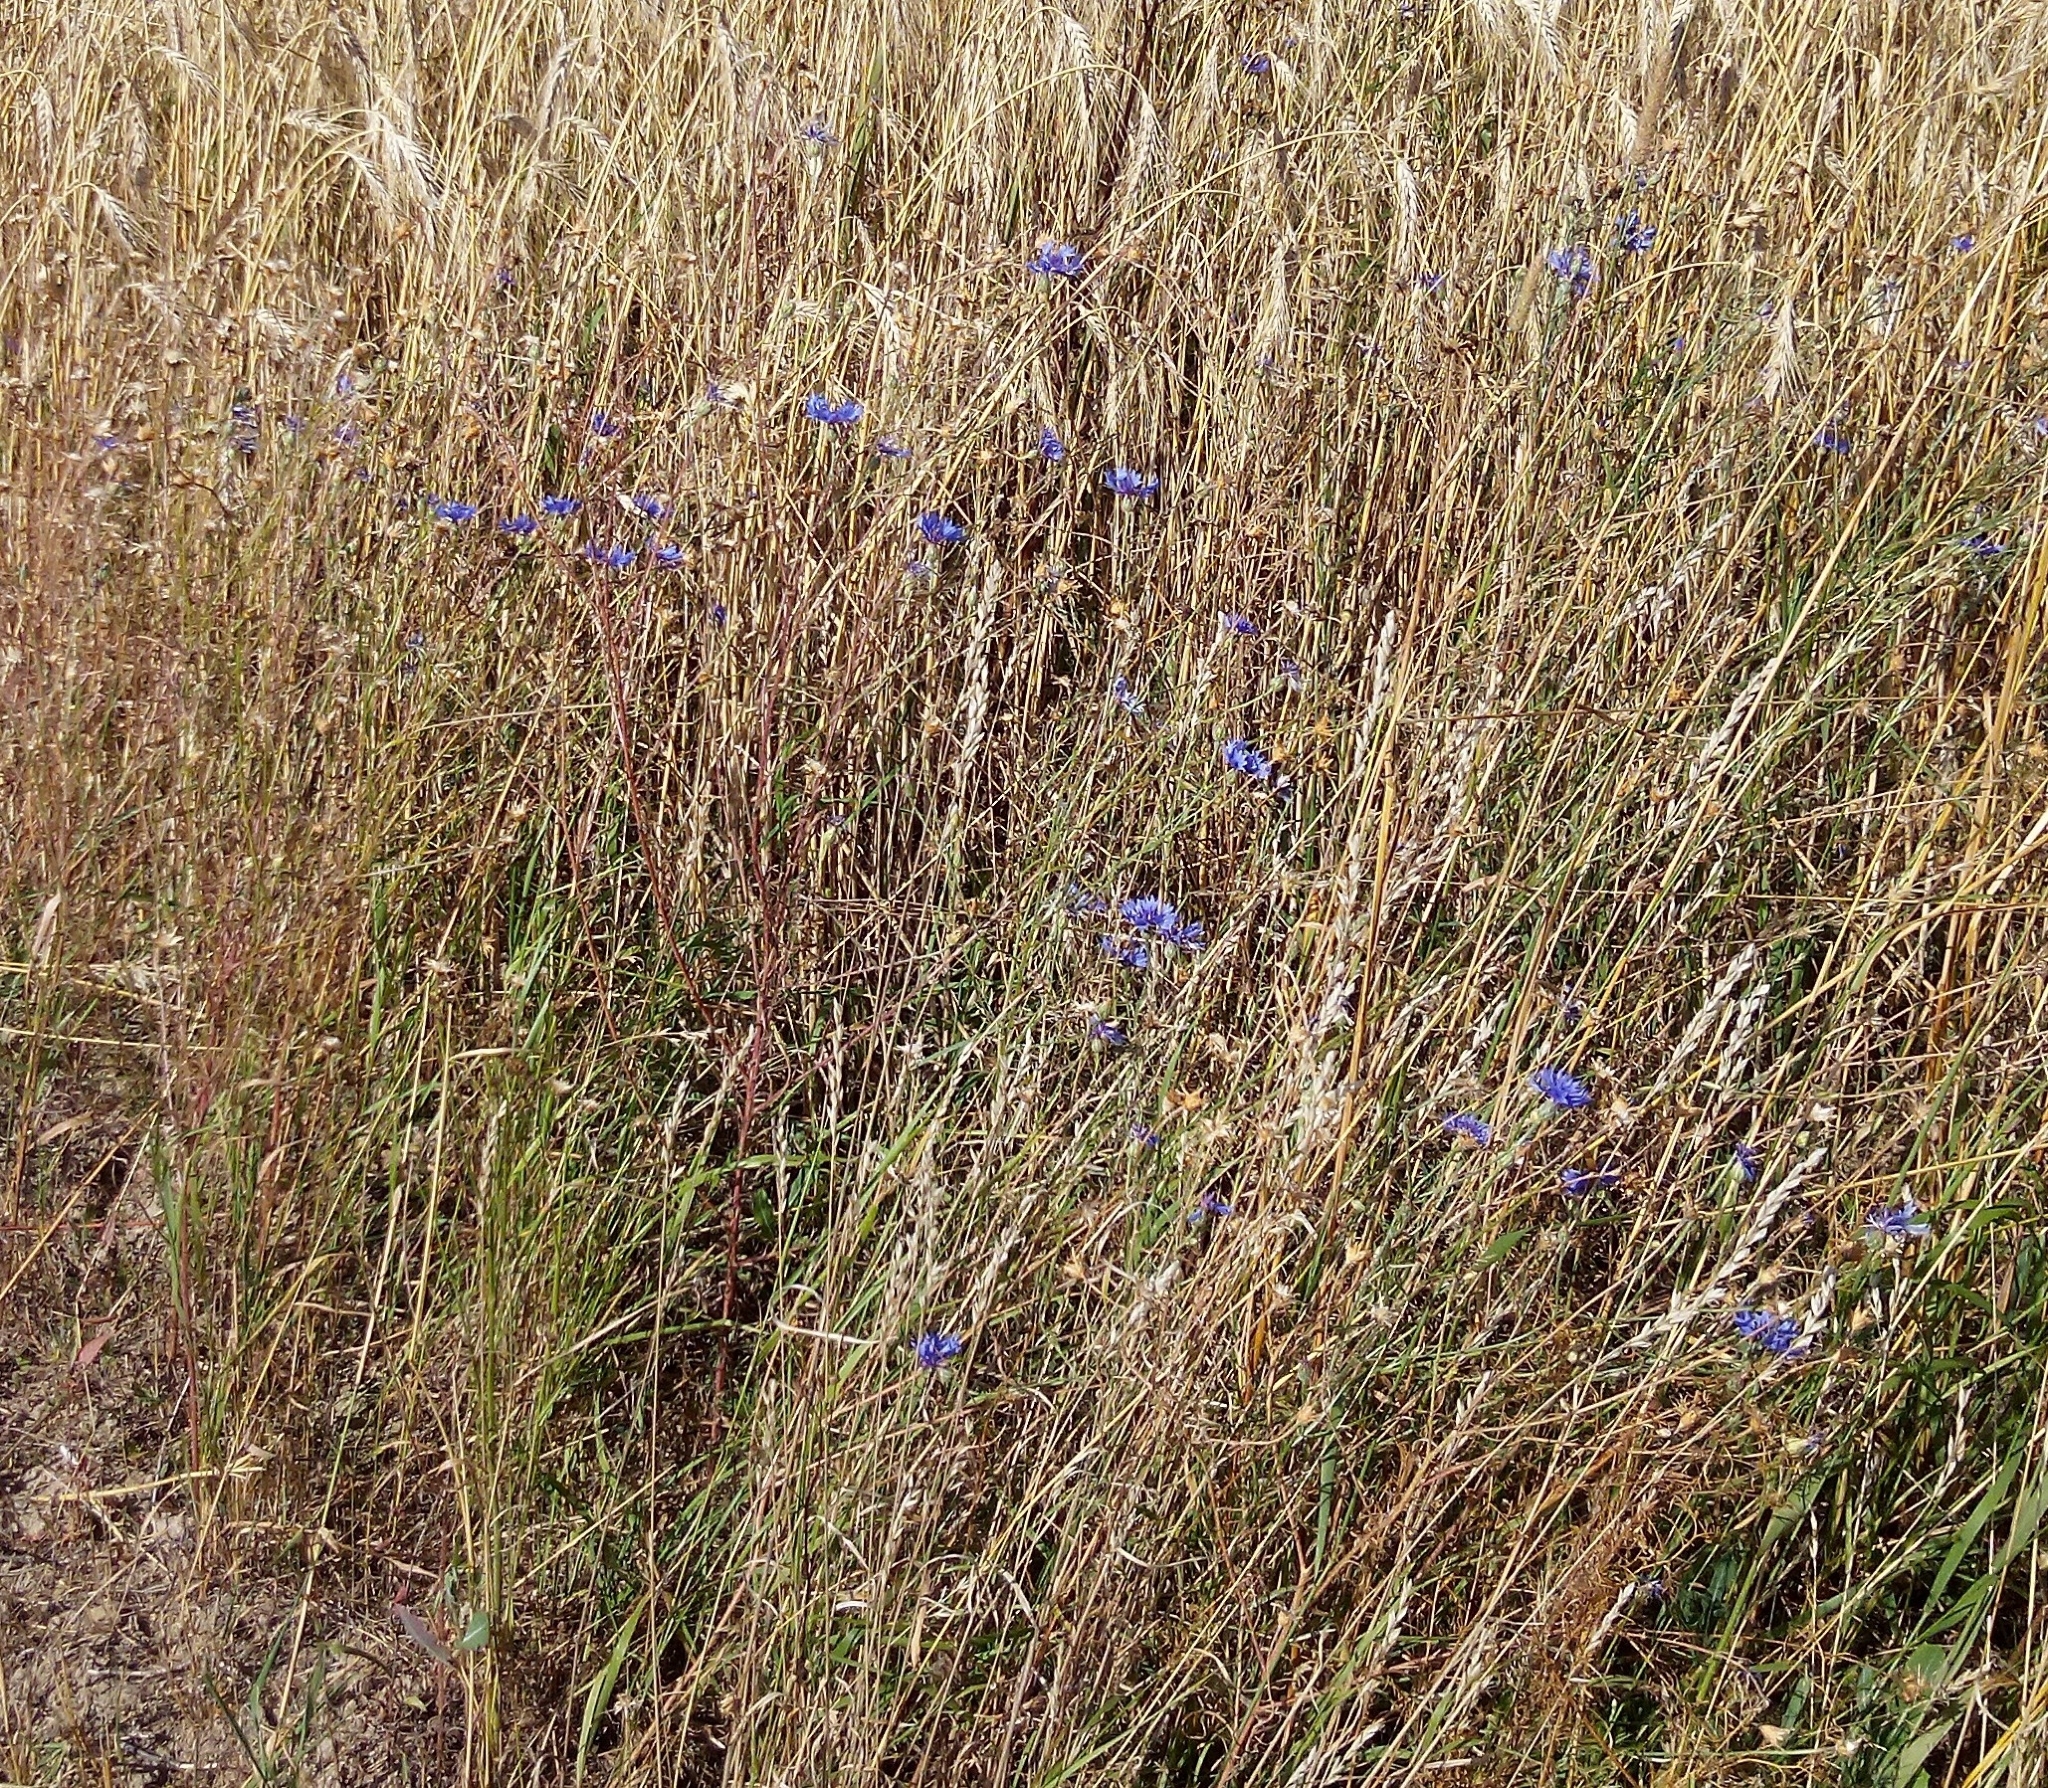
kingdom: Plantae
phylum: Tracheophyta
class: Magnoliopsida
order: Asterales
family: Asteraceae
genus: Centaurea
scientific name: Centaurea cyanus
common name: Cornflower
